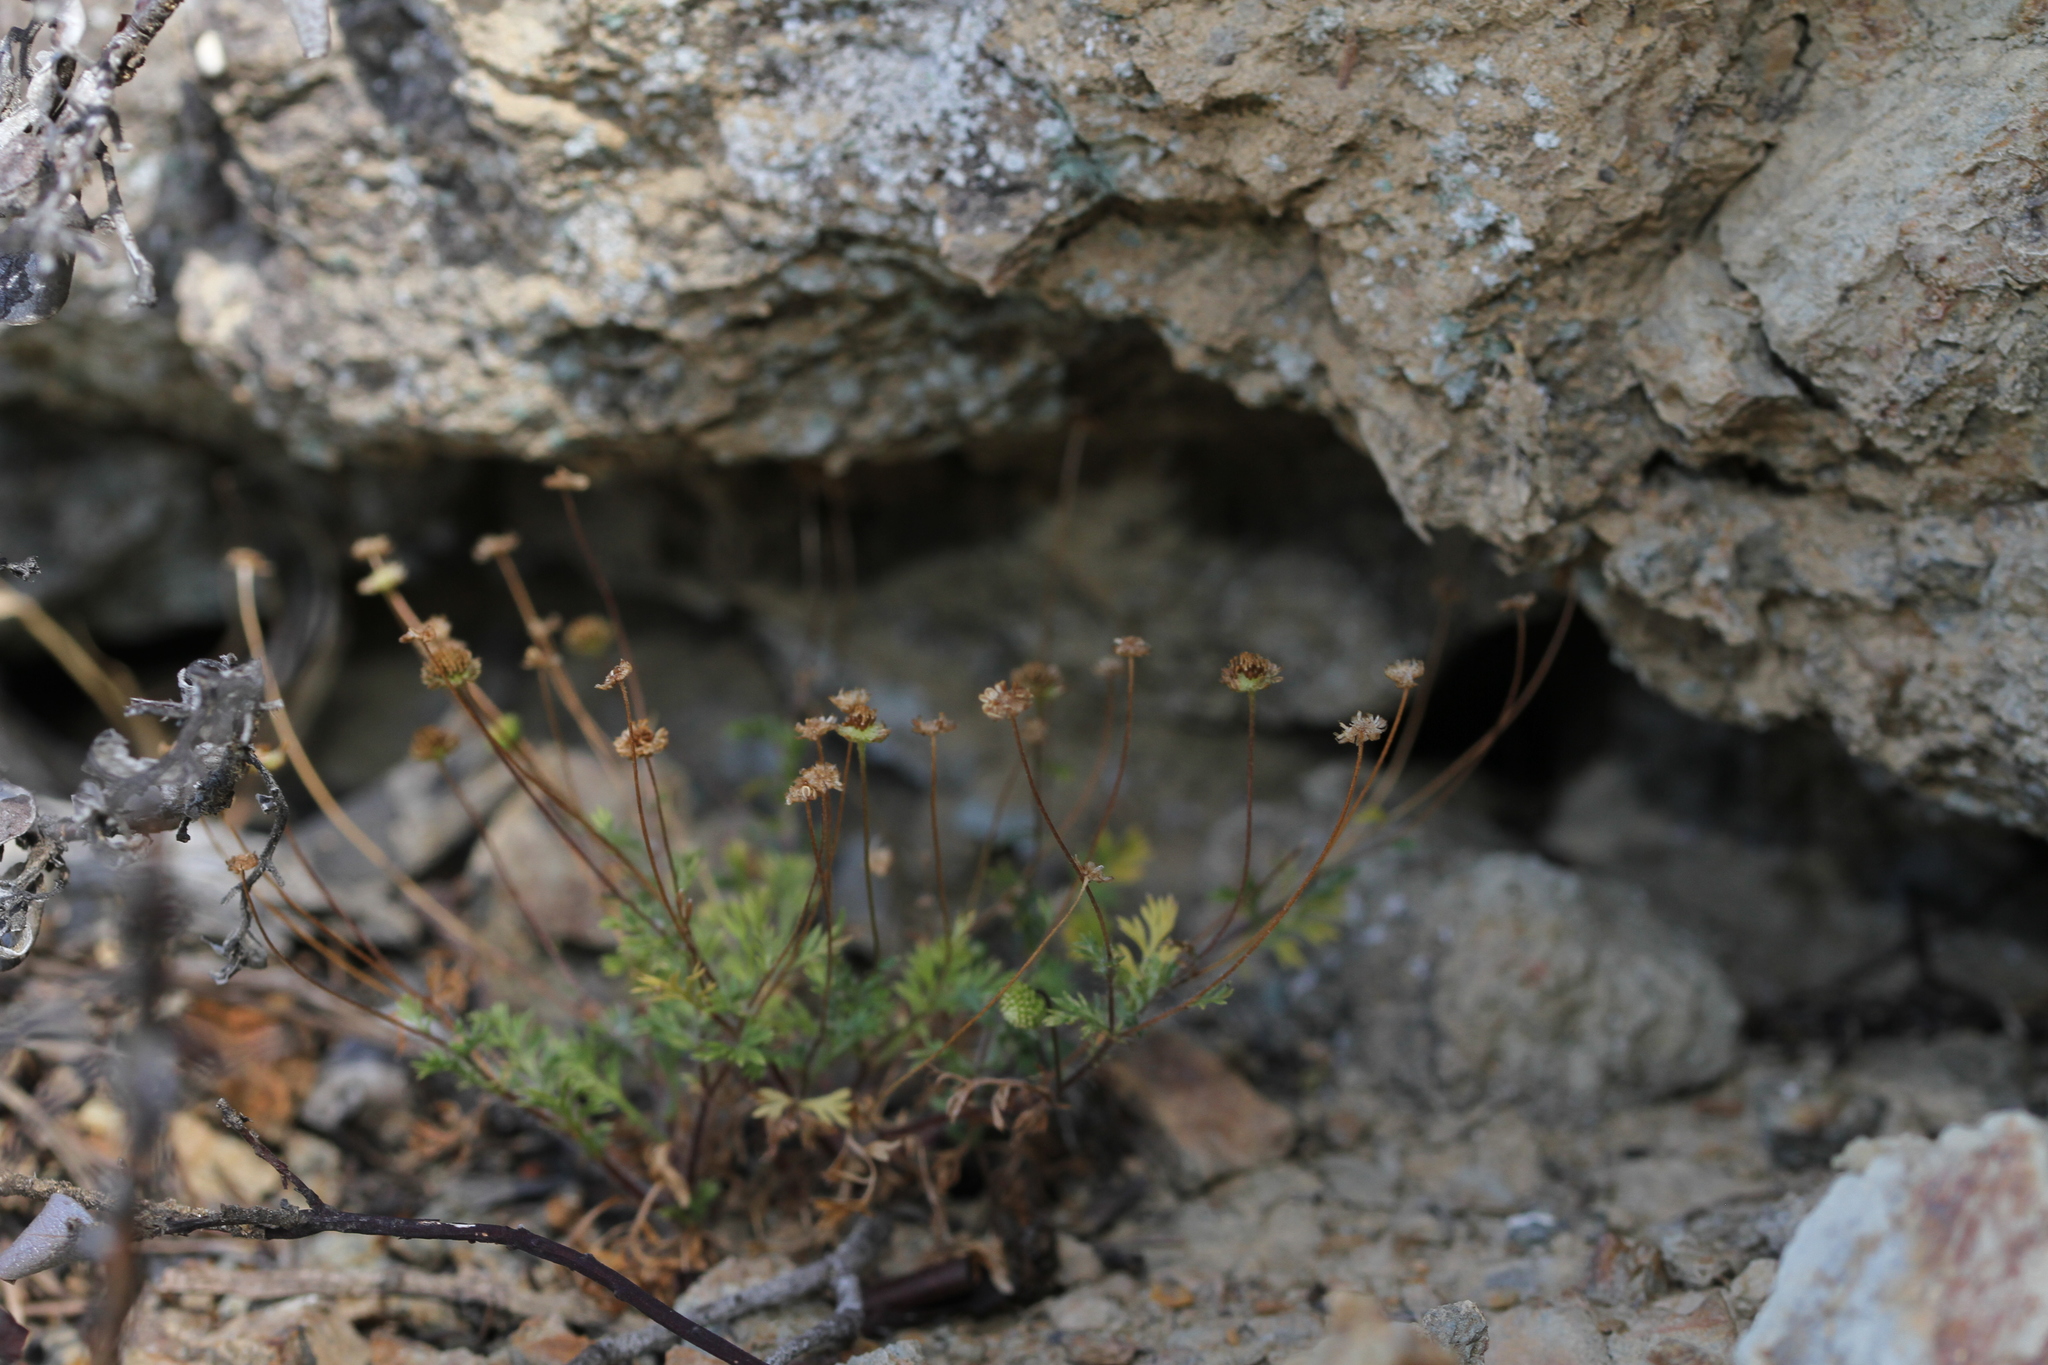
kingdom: Plantae
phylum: Tracheophyta
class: Magnoliopsida
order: Asterales
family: Asteraceae
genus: Cotula
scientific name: Cotula australis
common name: Australian waterbuttons
